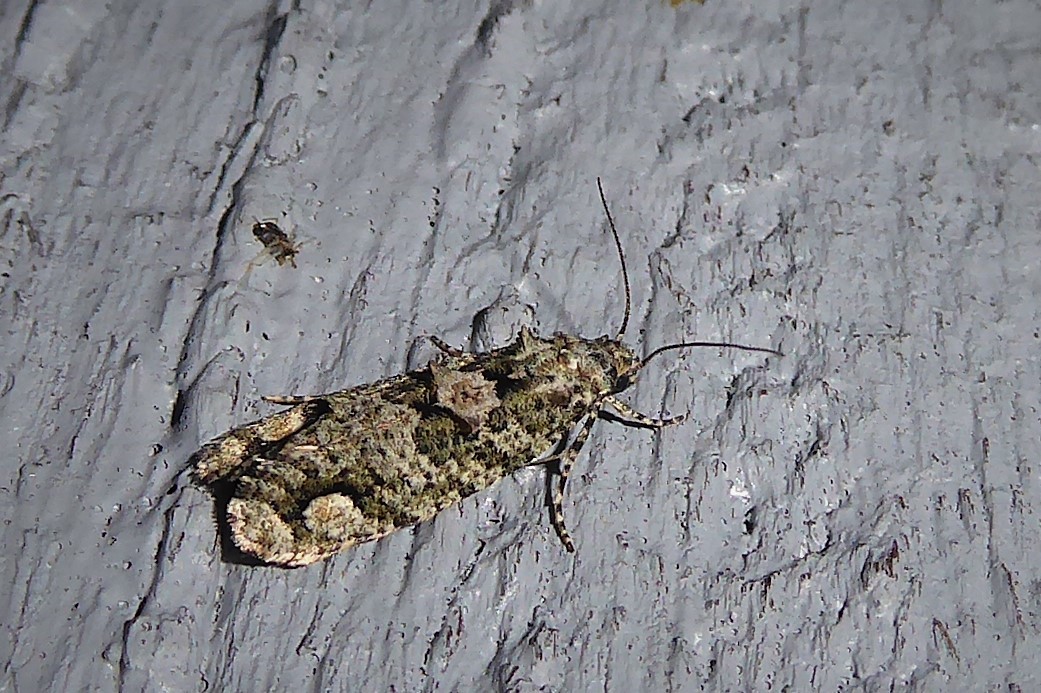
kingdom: Animalia
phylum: Arthropoda
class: Insecta
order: Lepidoptera
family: Tineidae
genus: Lysiphragma
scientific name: Lysiphragma howesii
